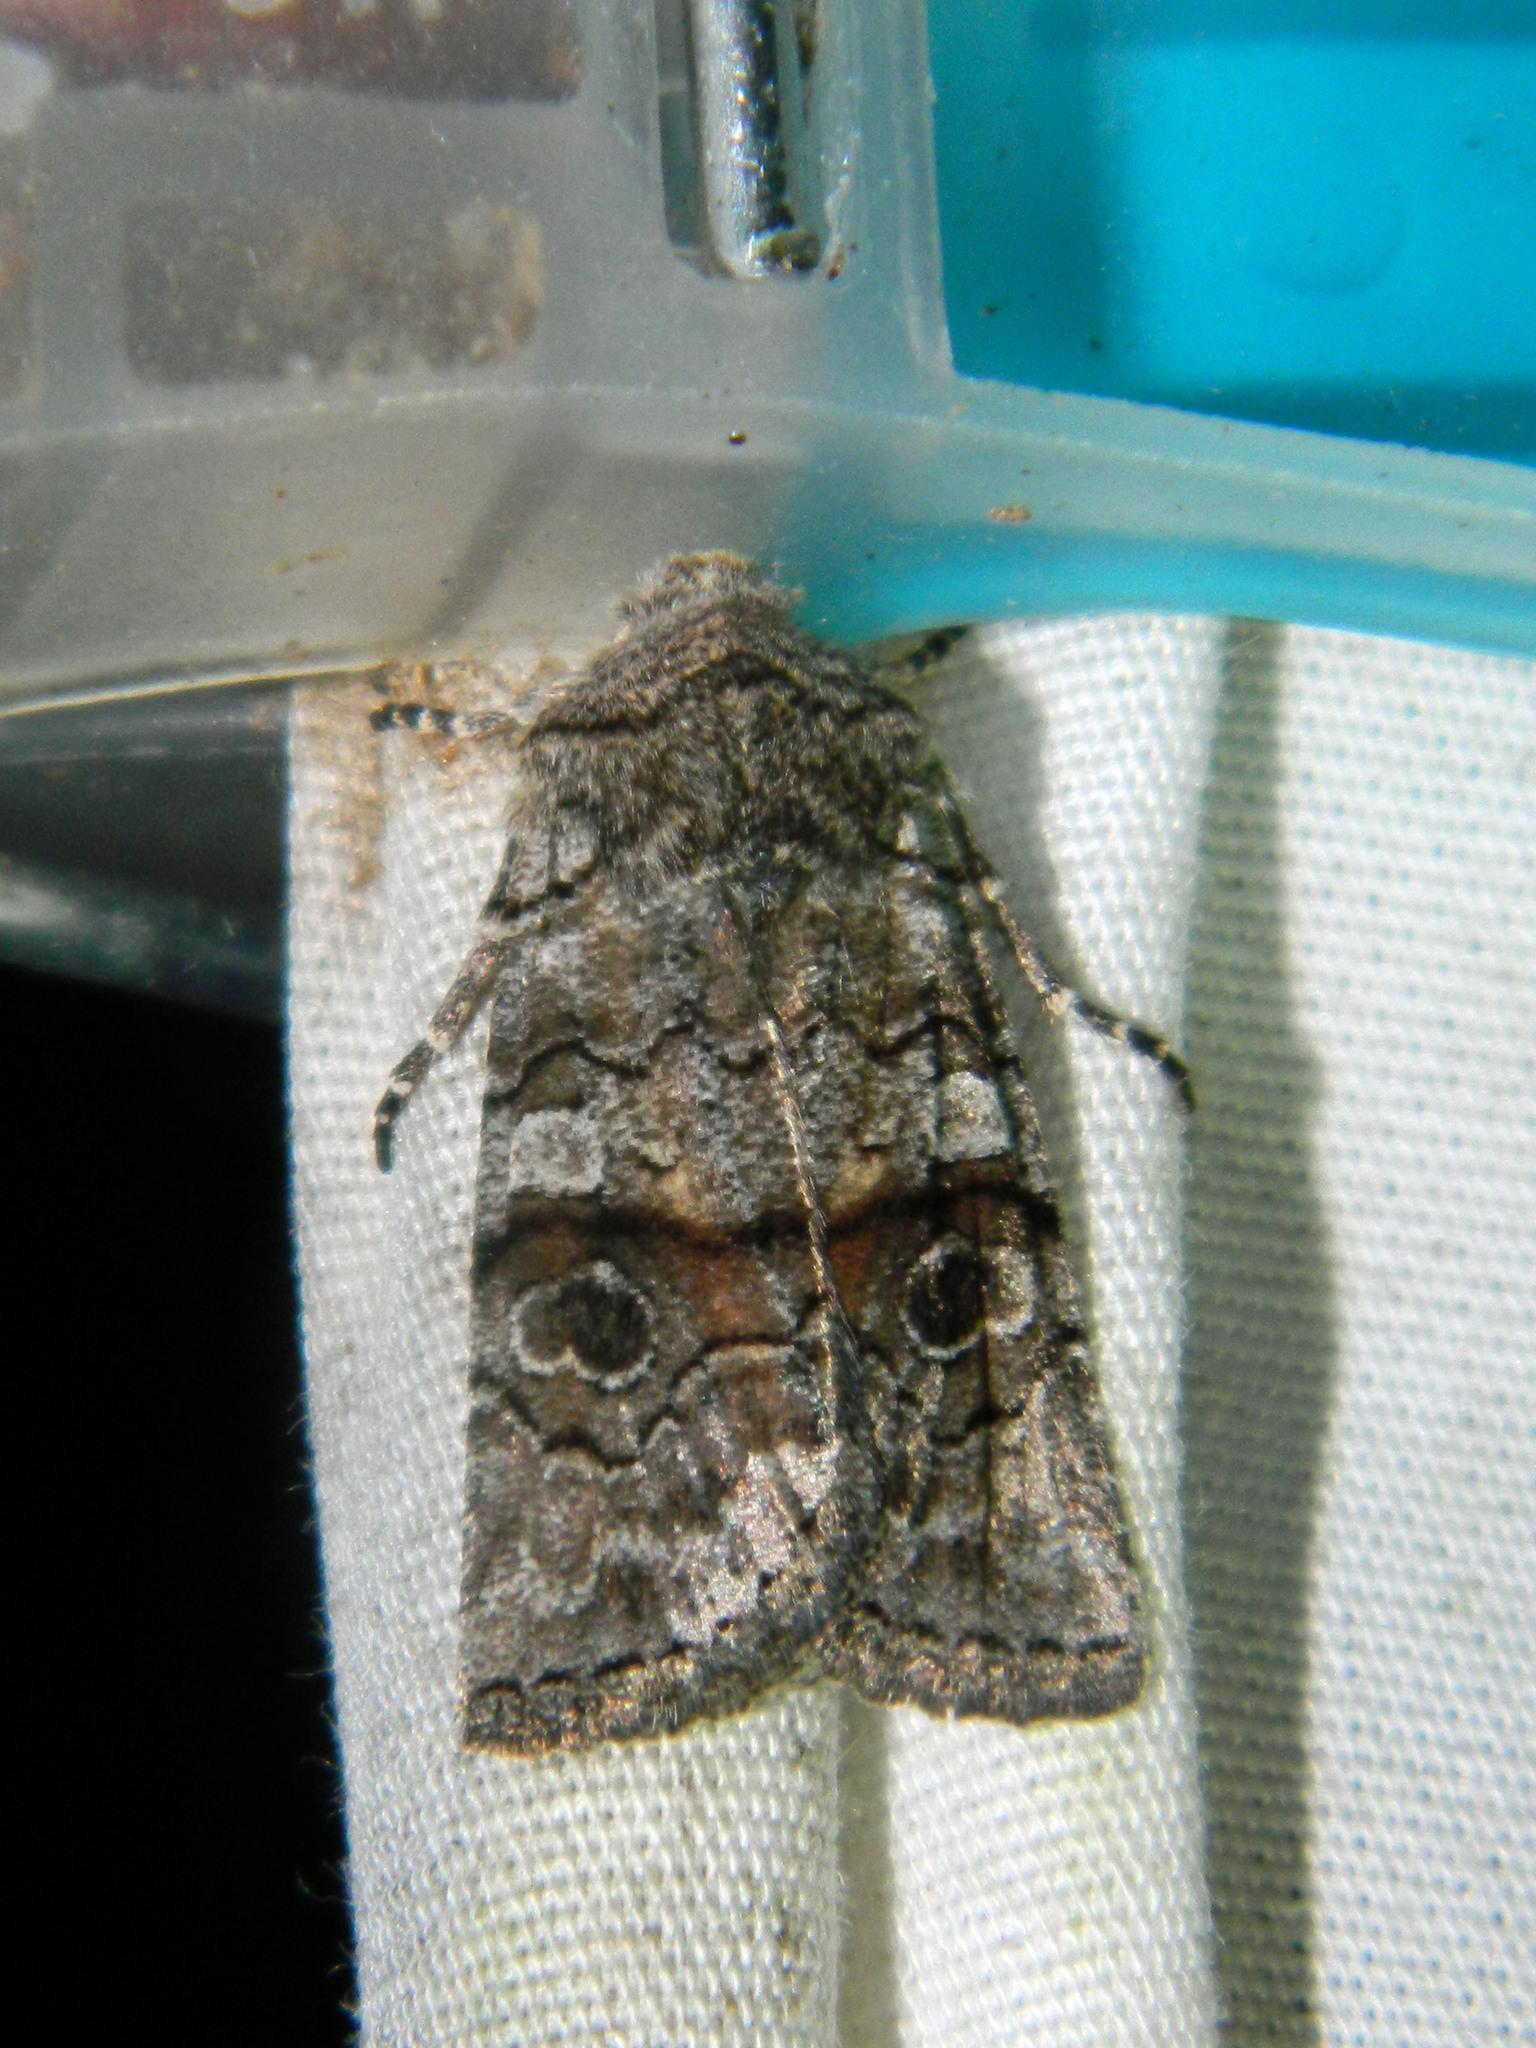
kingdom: Animalia
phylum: Arthropoda
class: Insecta
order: Lepidoptera
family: Noctuidae
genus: Litholomia
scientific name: Litholomia napaea
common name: False pinion moth
